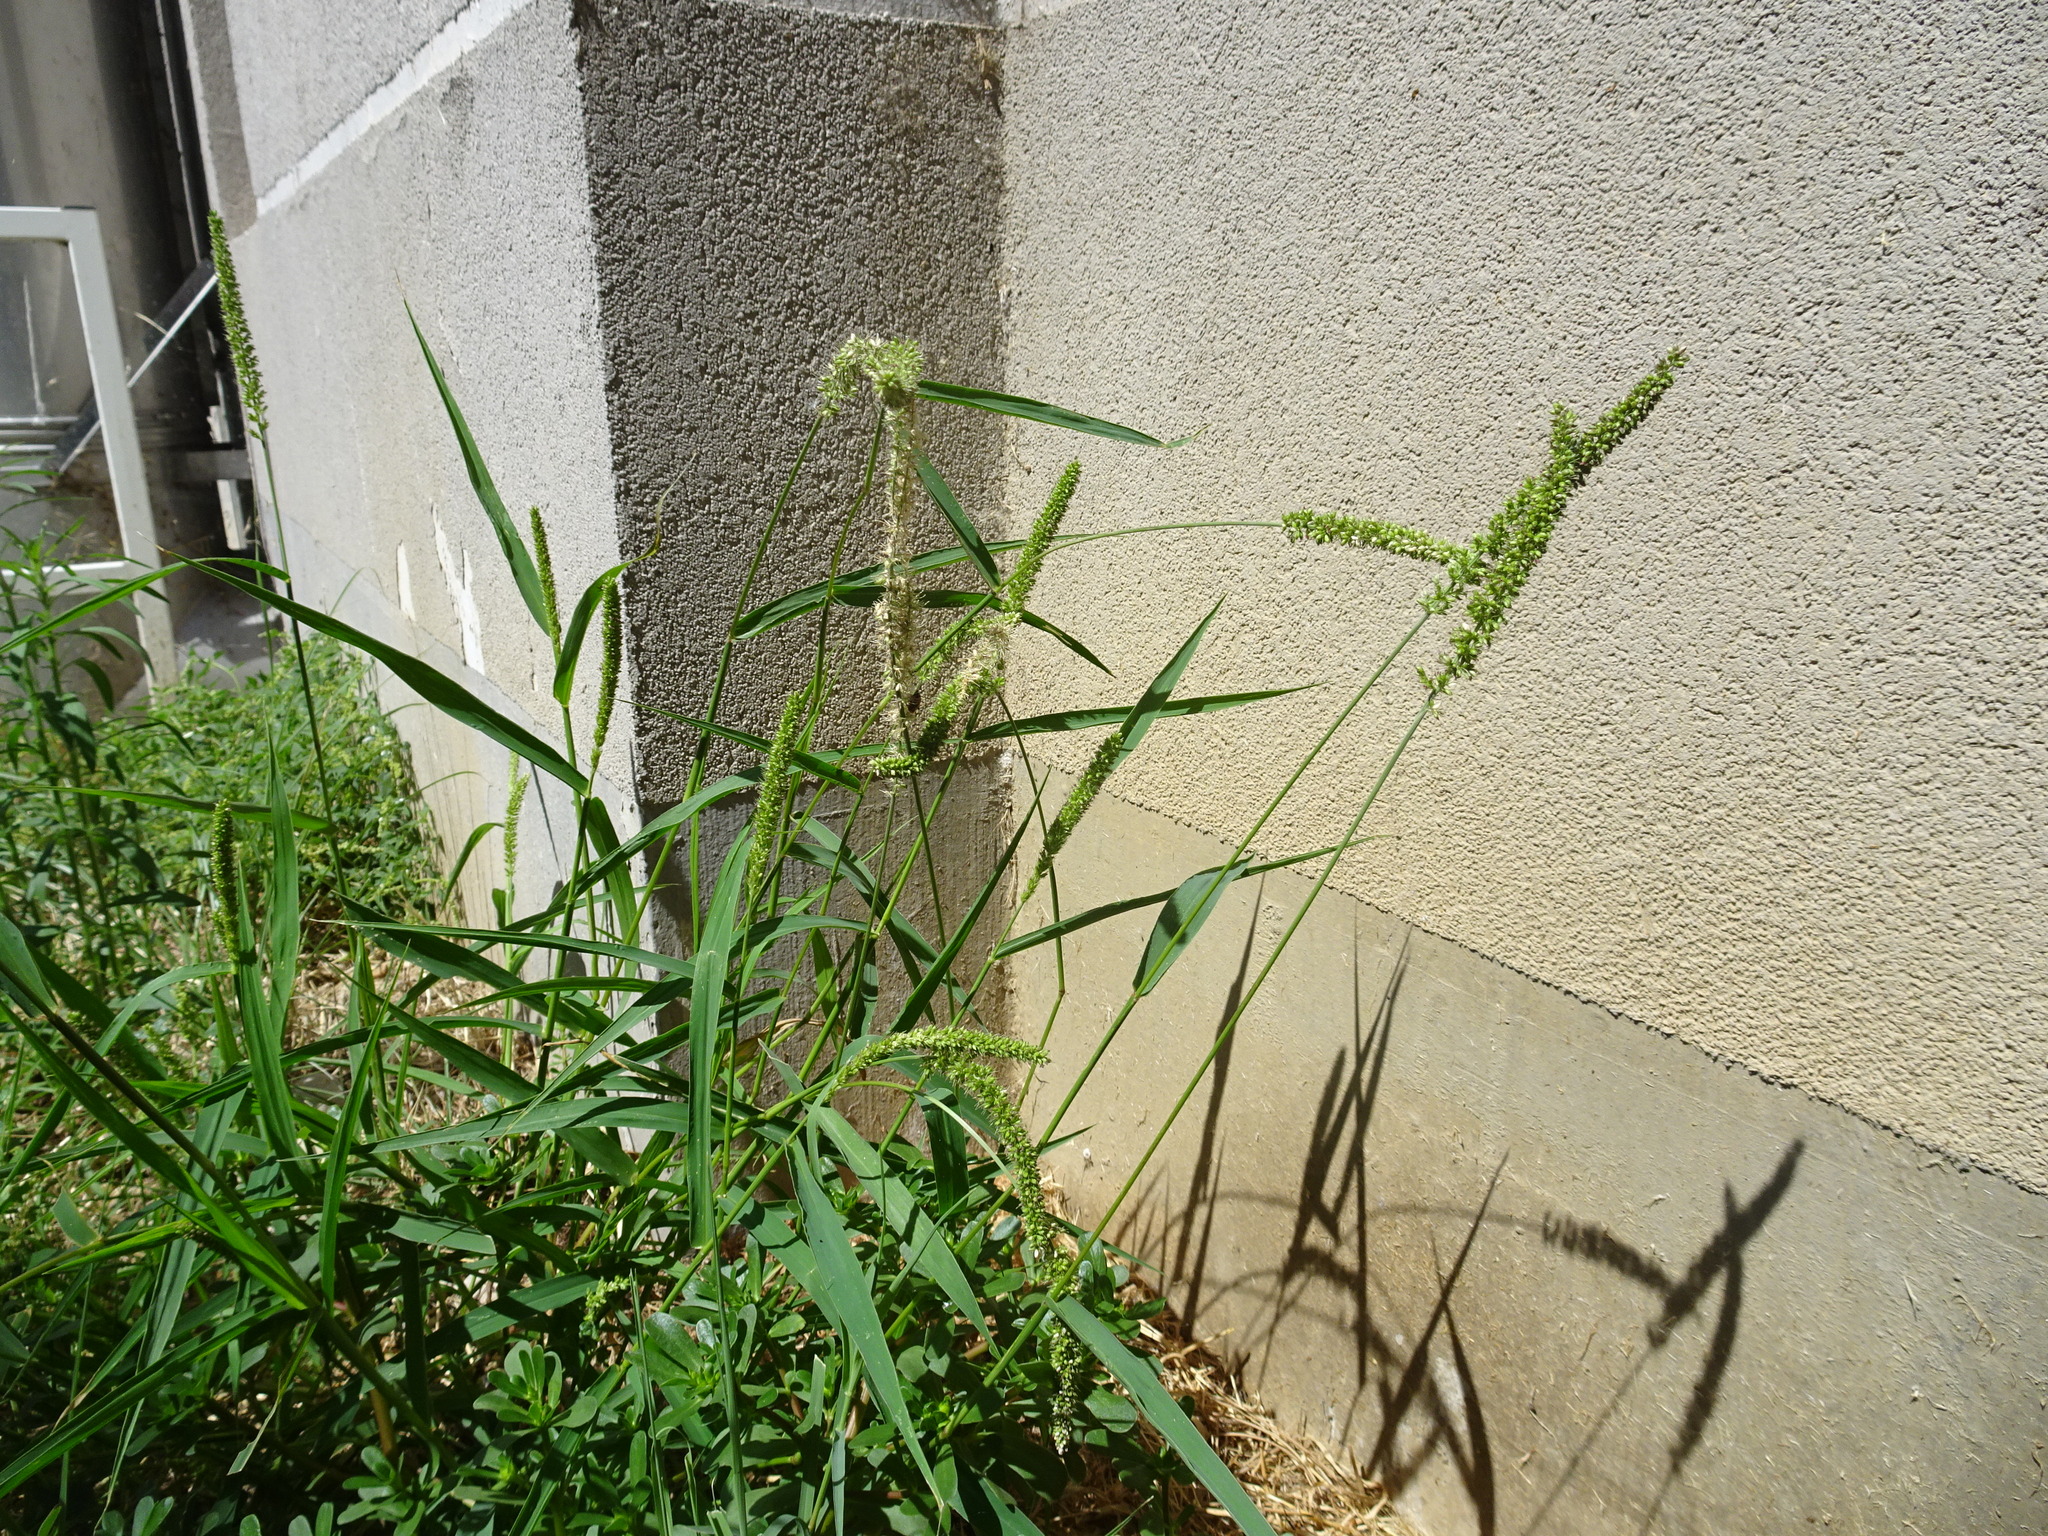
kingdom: Plantae
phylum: Tracheophyta
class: Liliopsida
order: Poales
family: Poaceae
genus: Setaria
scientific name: Setaria verticillata
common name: Hooked bristlegrass
